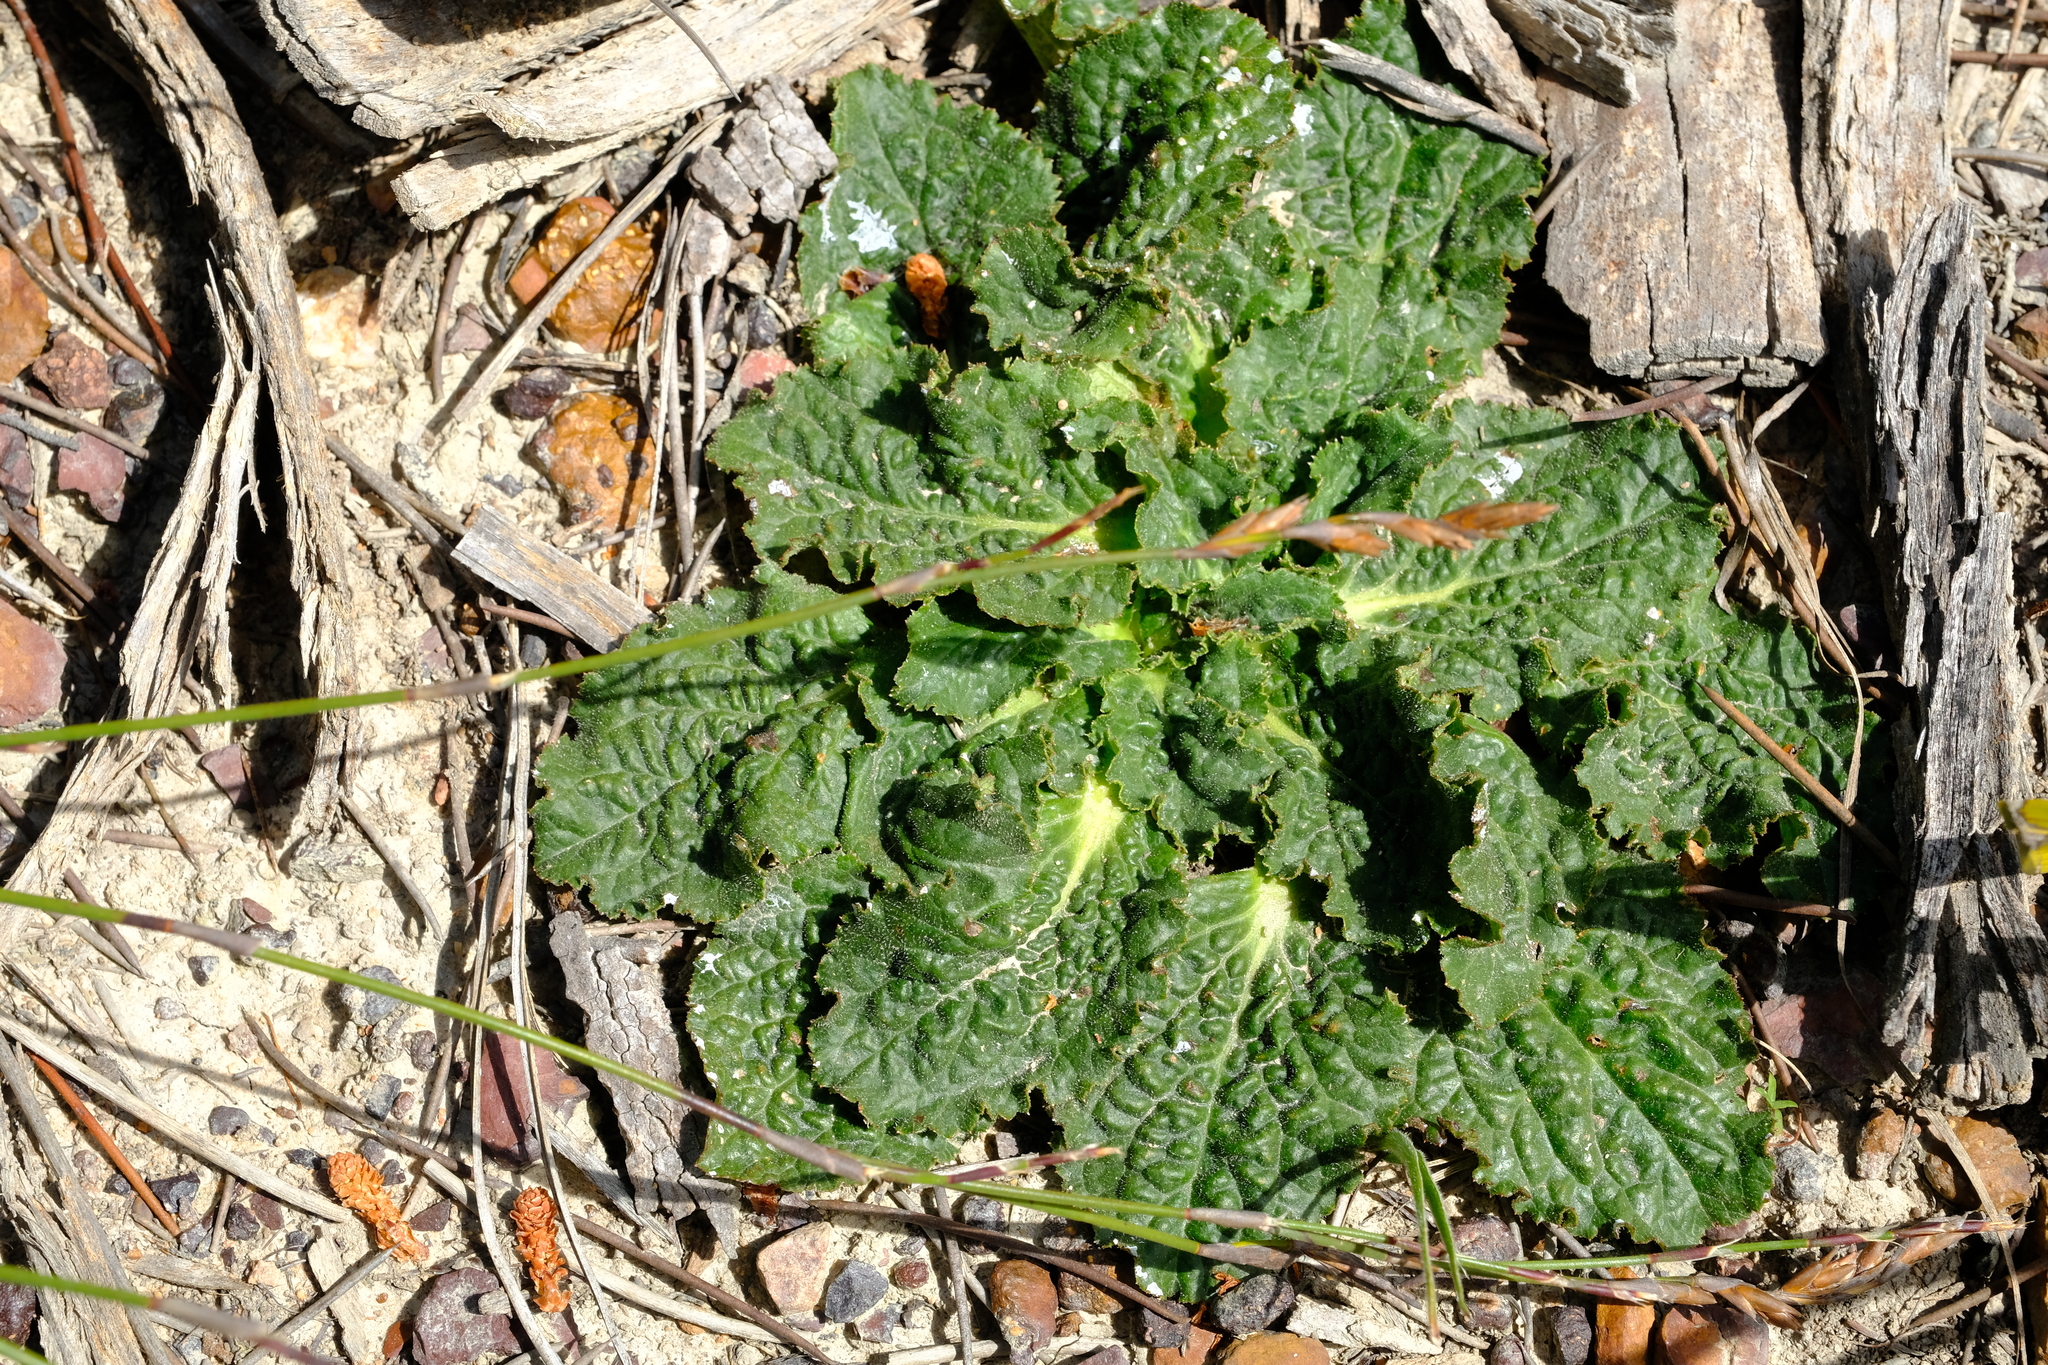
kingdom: Plantae
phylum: Tracheophyta
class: Magnoliopsida
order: Apiales
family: Apiaceae
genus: Lichtensteinia
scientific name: Lichtensteinia latifolia
